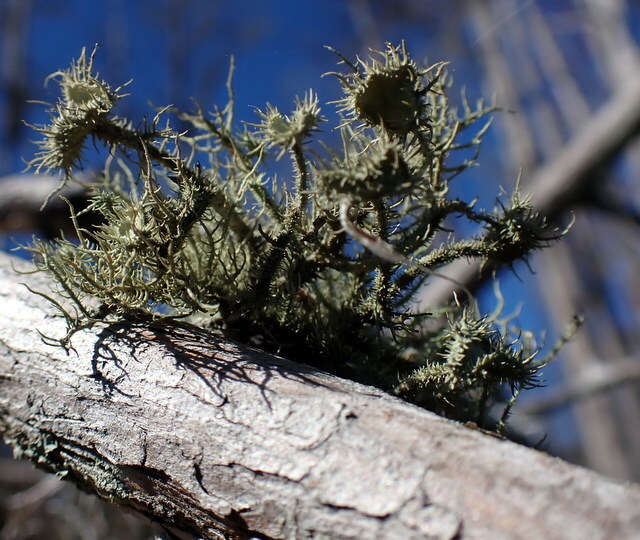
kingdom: Fungi
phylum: Ascomycota
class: Lecanoromycetes
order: Lecanorales
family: Parmeliaceae
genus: Usnea
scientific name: Usnea strigosa
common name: Bushy beard lichen
